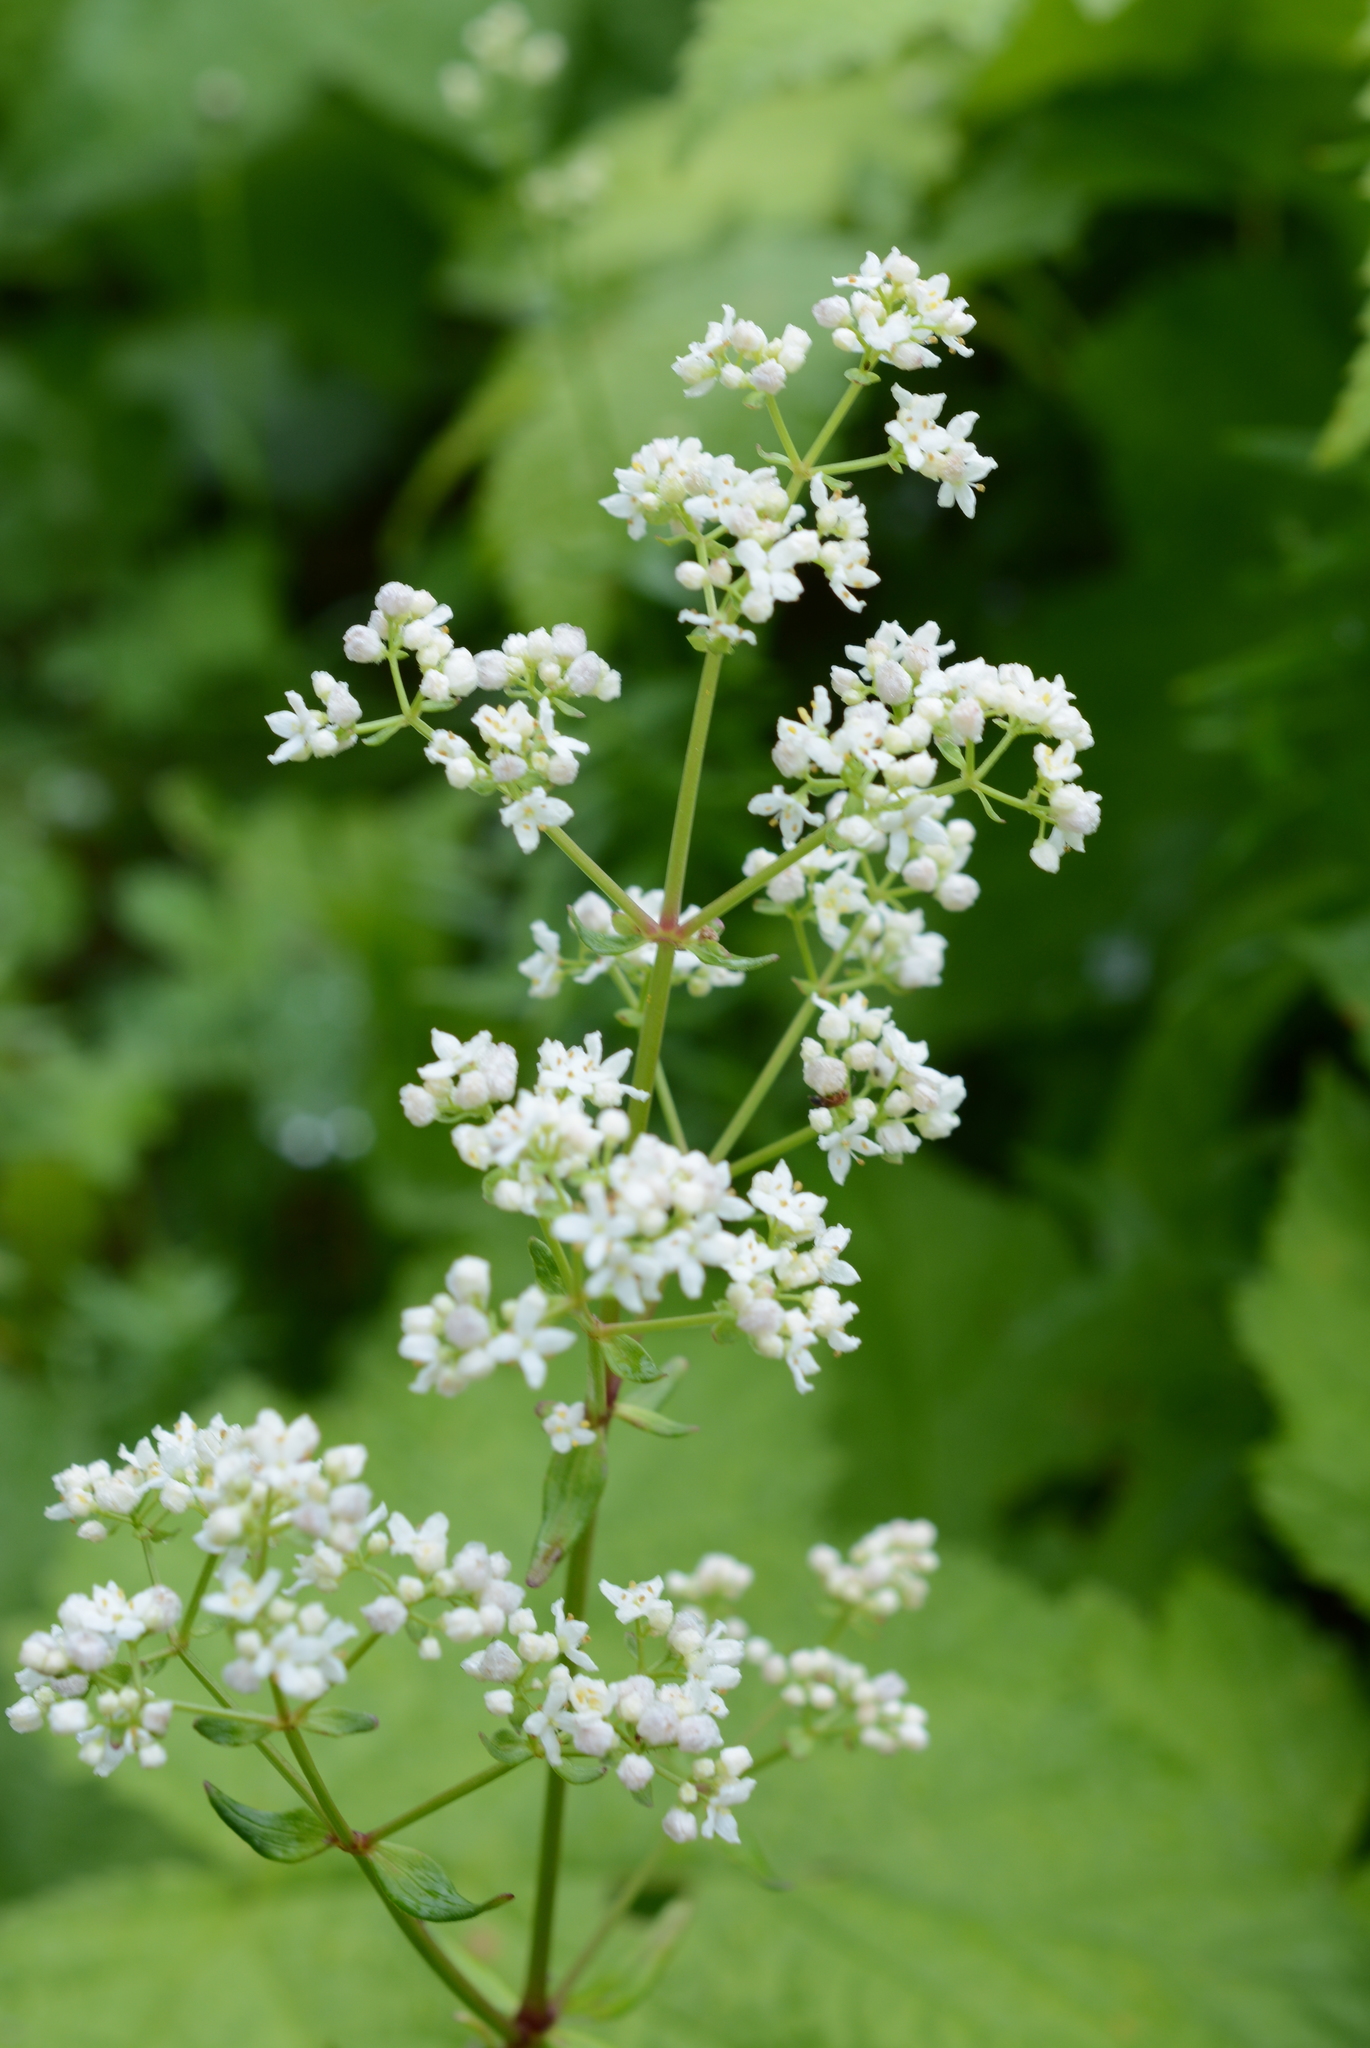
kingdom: Plantae
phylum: Tracheophyta
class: Magnoliopsida
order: Gentianales
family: Rubiaceae
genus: Galium
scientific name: Galium boreale
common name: Northern bedstraw
